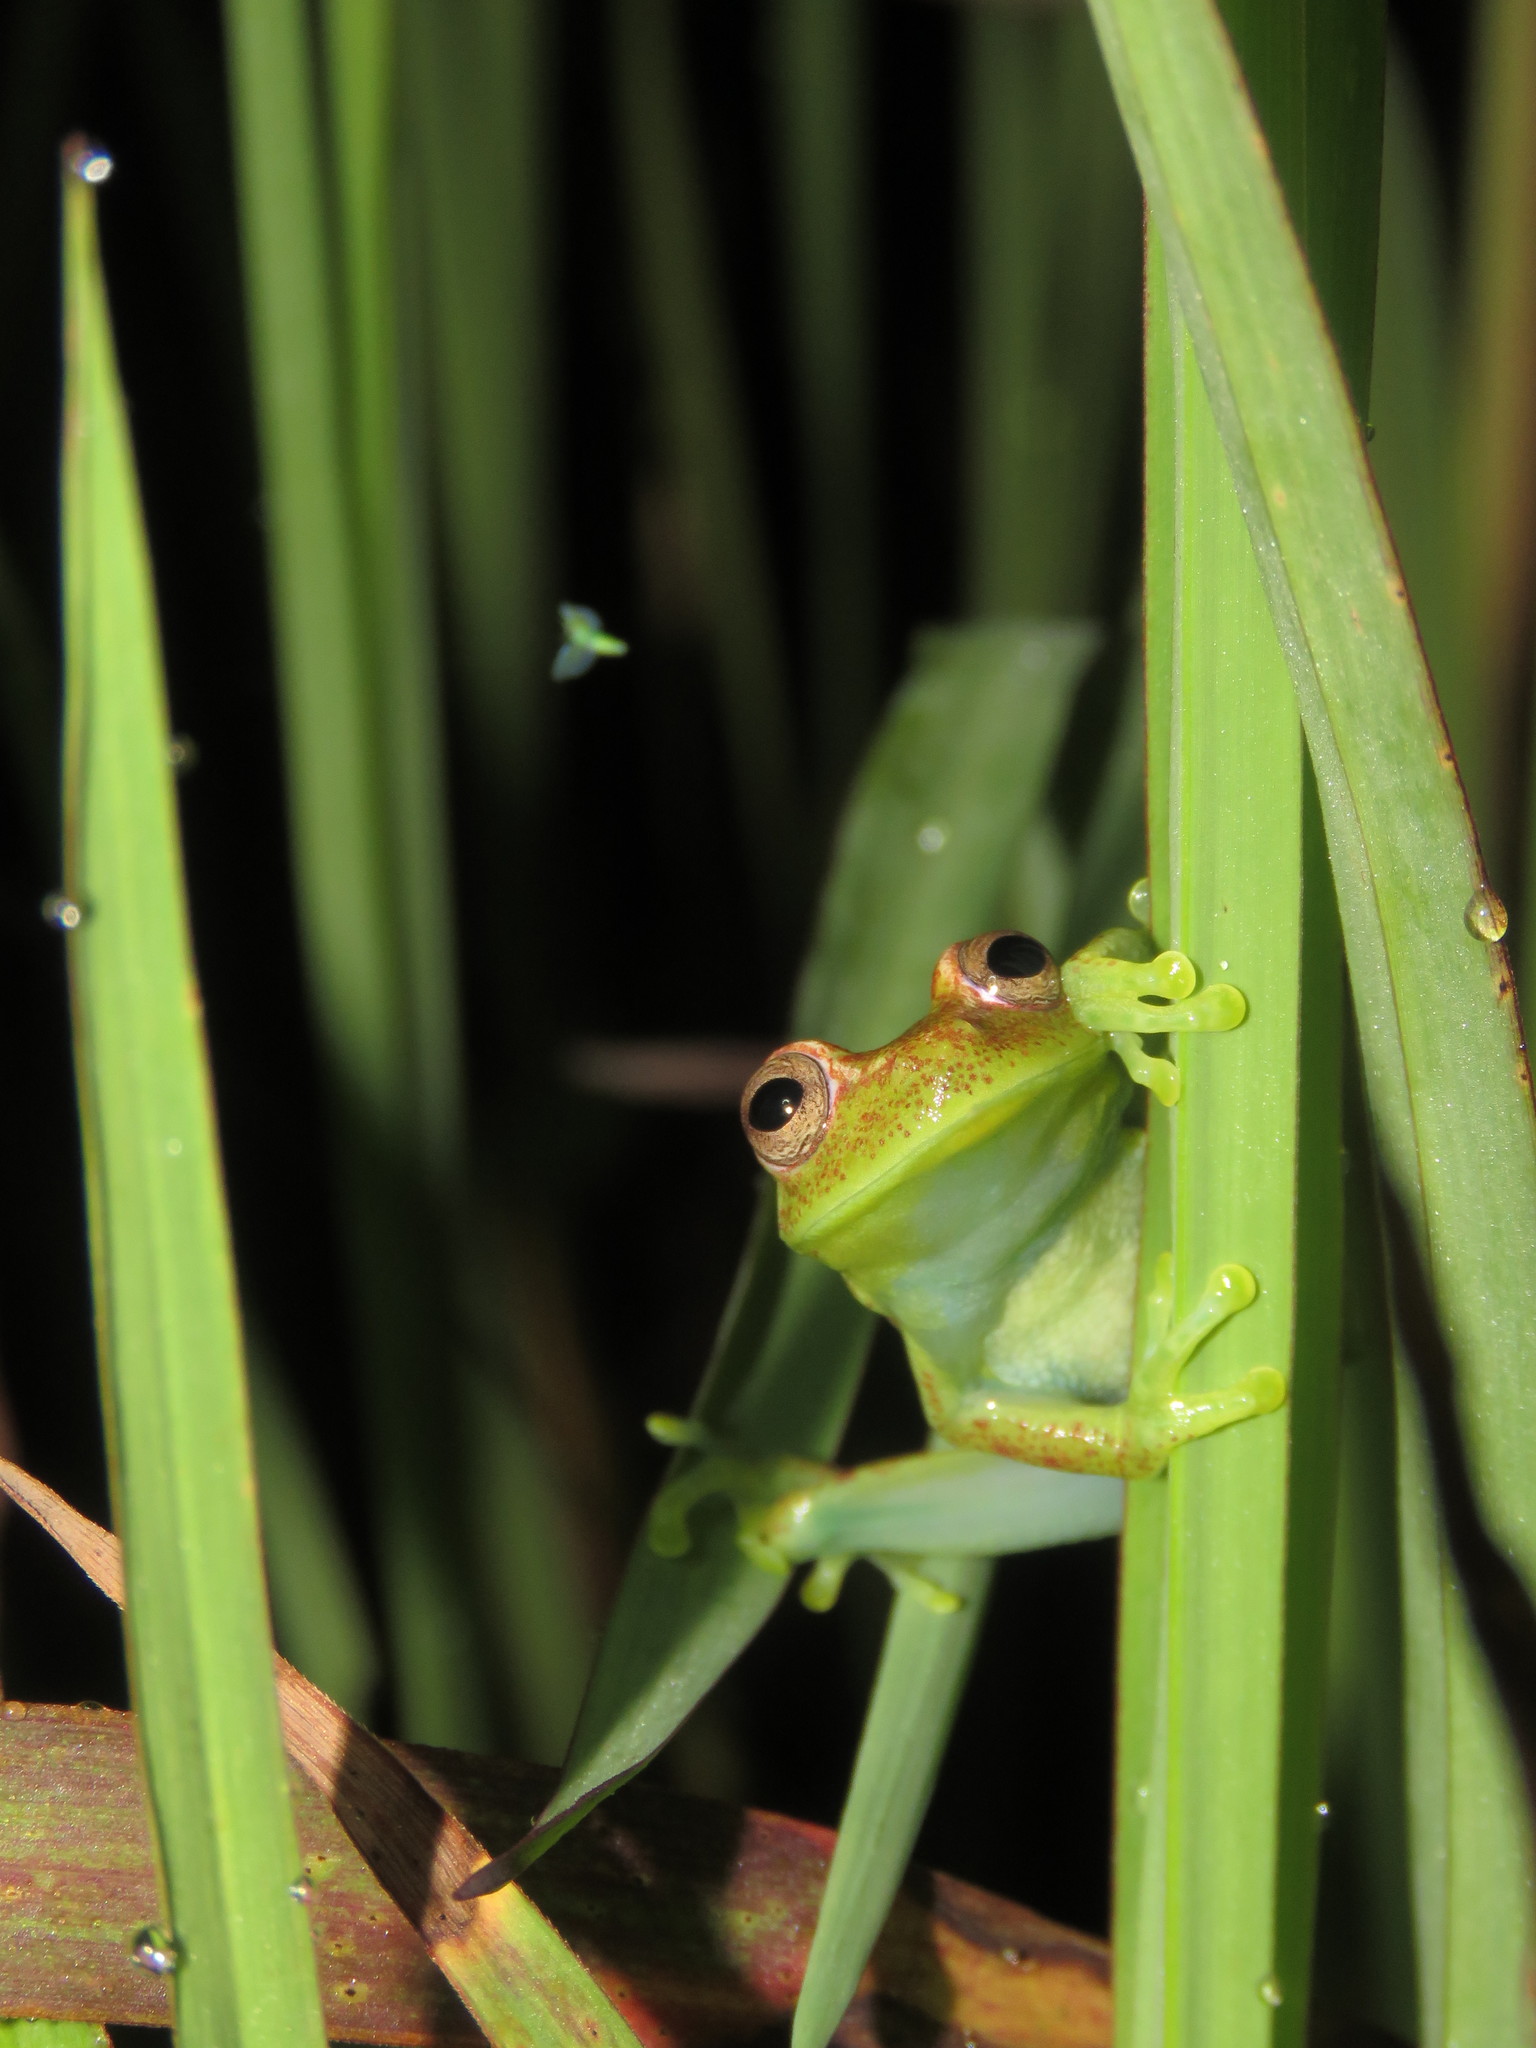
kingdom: Animalia
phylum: Chordata
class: Amphibia
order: Anura
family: Hylidae
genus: Boana
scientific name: Boana punctata
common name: Polka-dot treefrog
